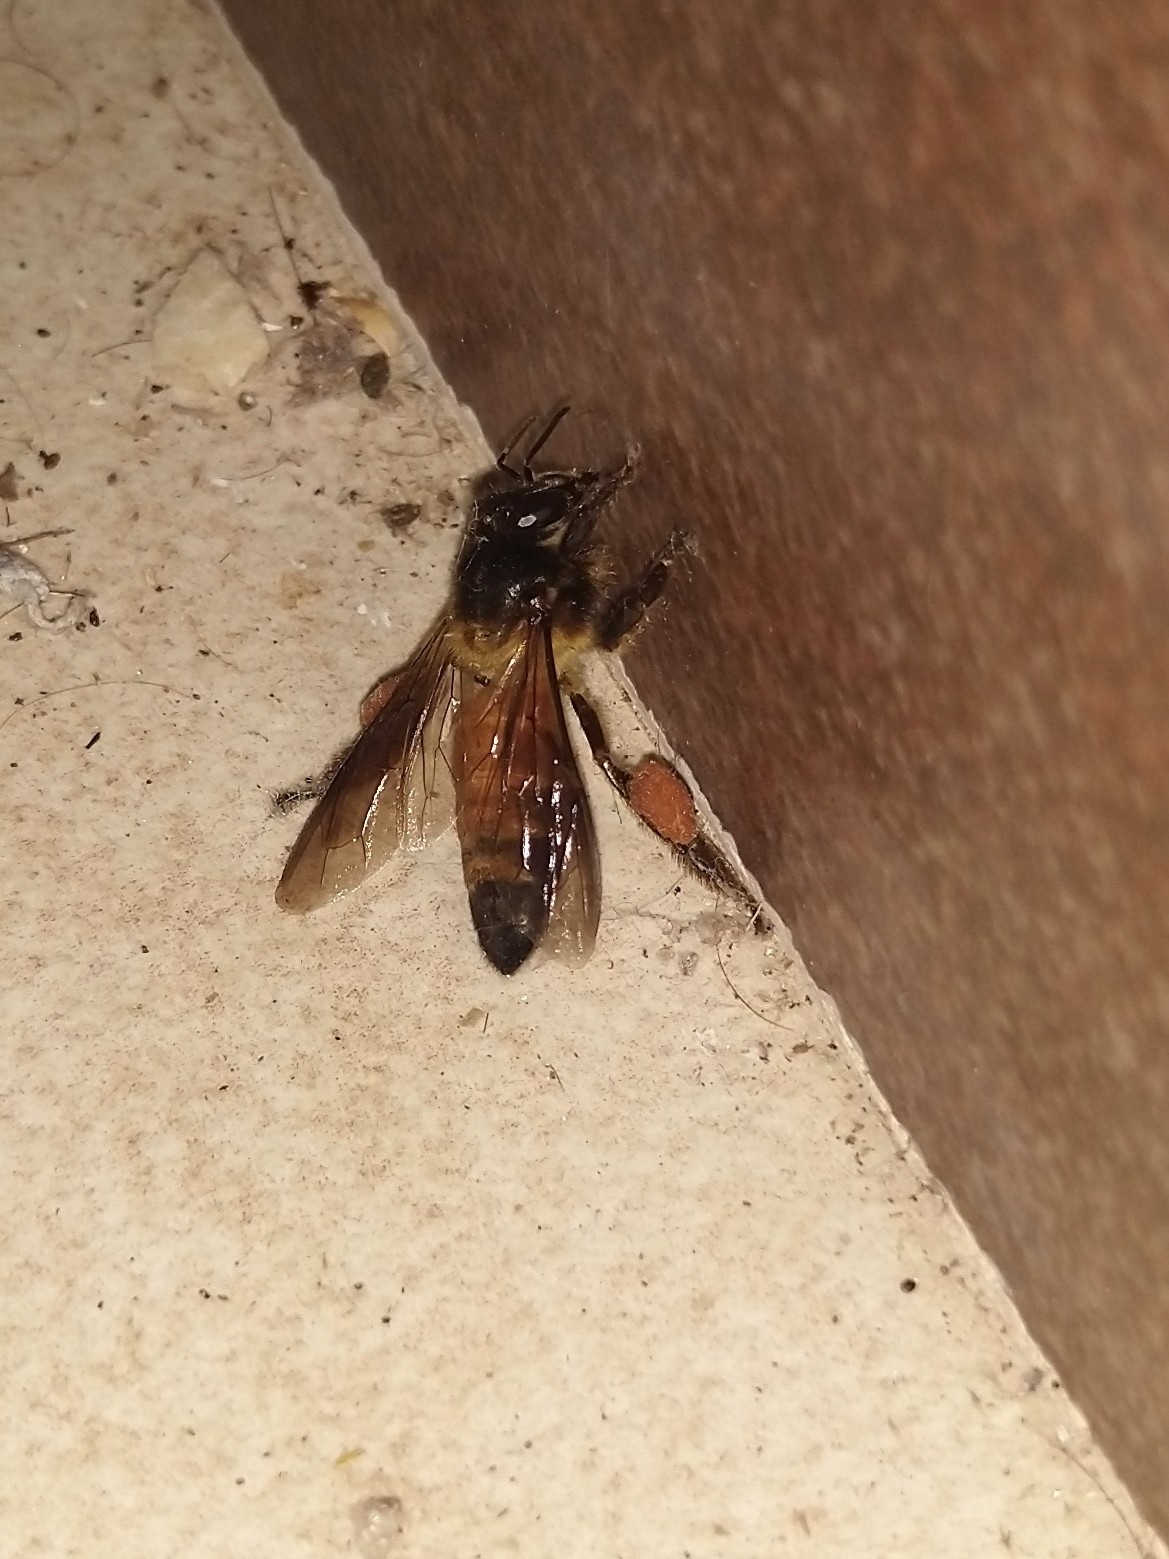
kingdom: Animalia
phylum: Arthropoda
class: Insecta
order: Hymenoptera
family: Apidae
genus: Apis
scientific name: Apis dorsata
